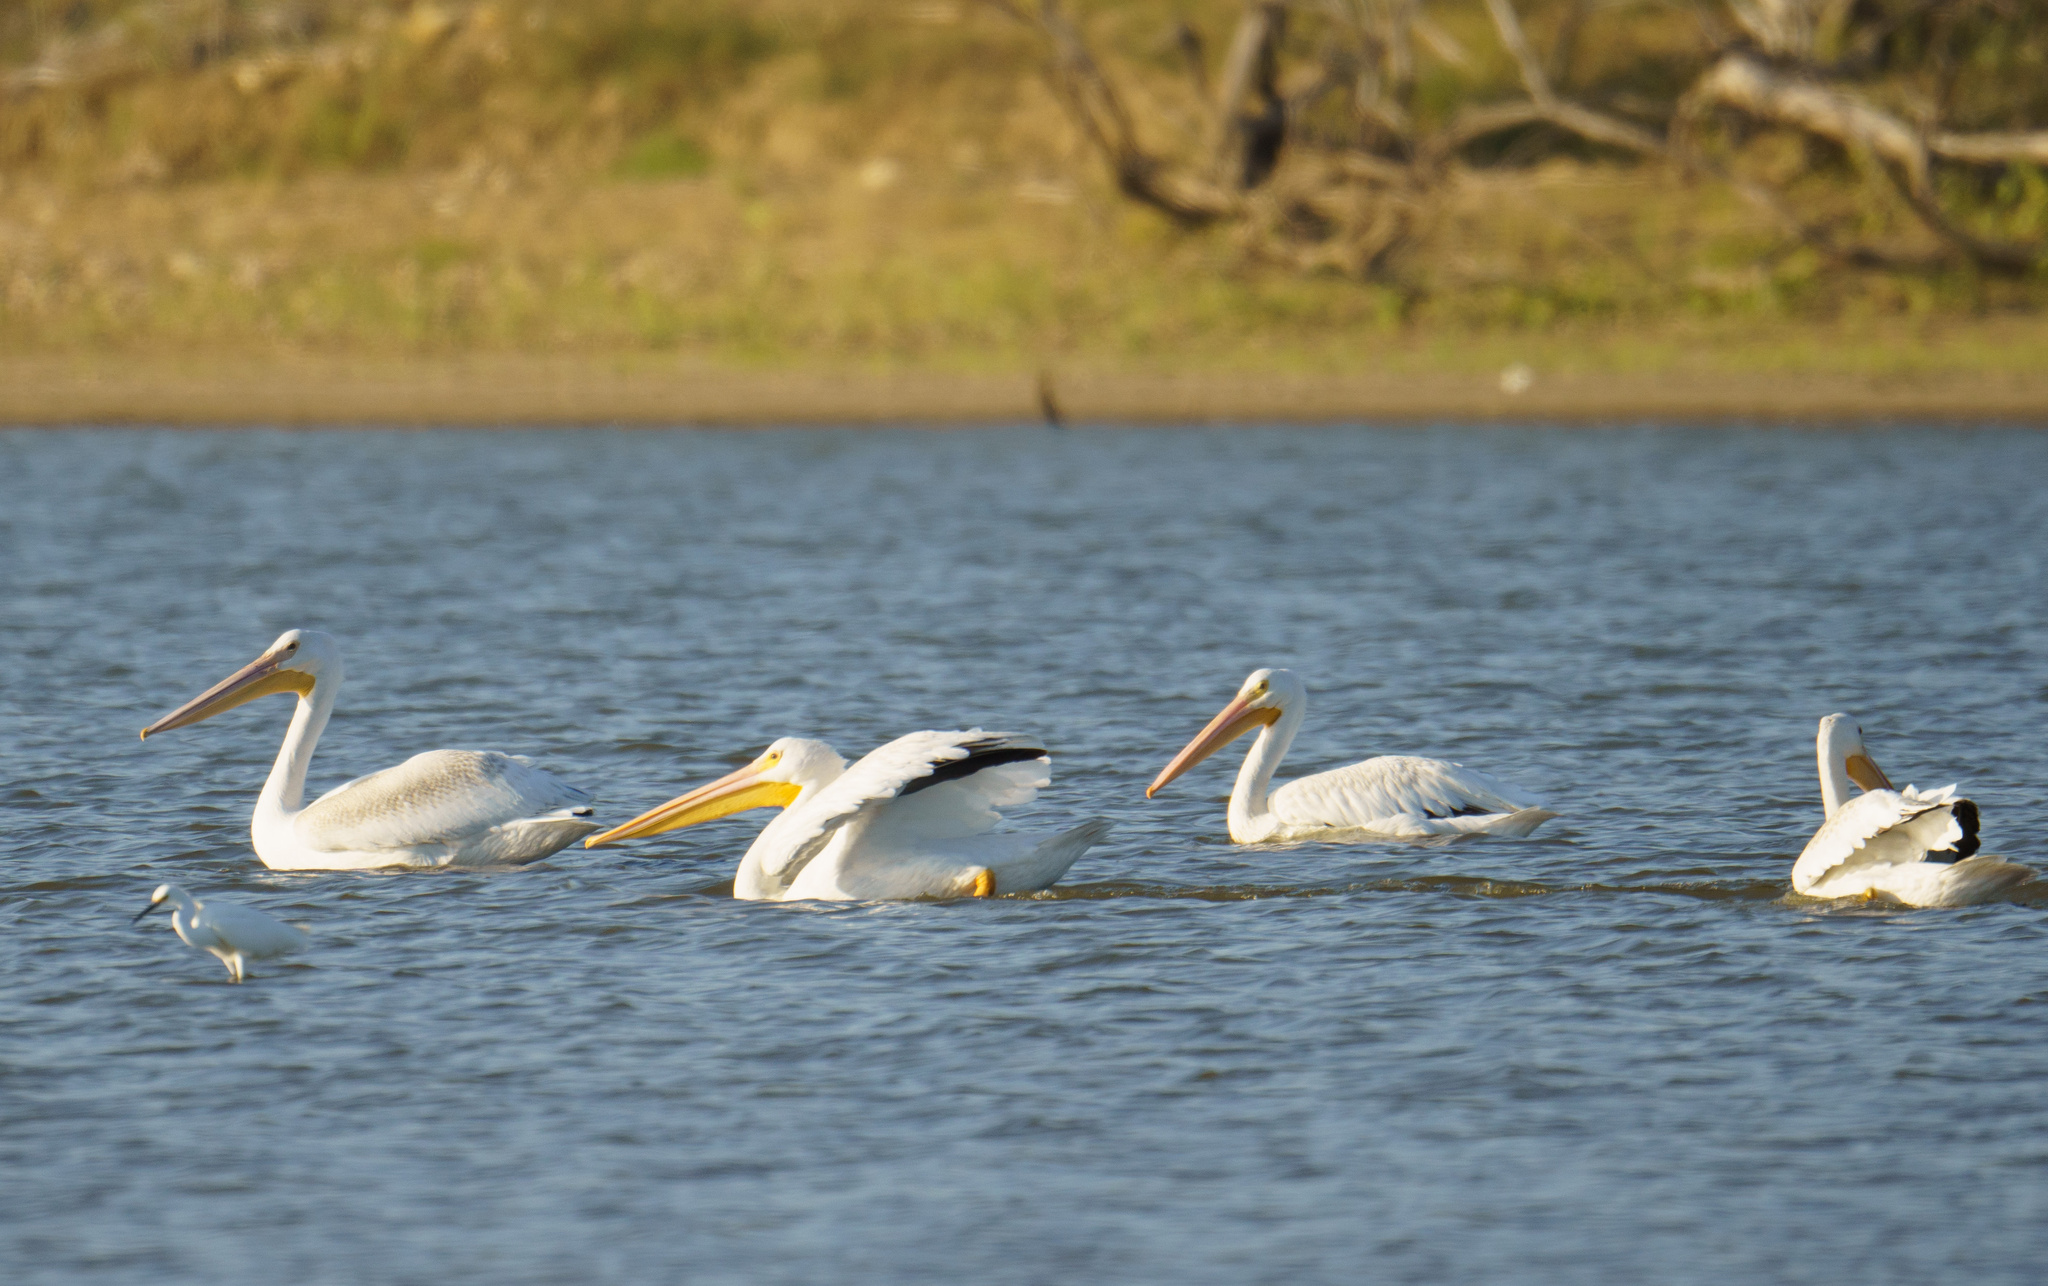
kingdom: Animalia
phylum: Chordata
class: Aves
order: Pelecaniformes
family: Pelecanidae
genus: Pelecanus
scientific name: Pelecanus erythrorhynchos
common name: American white pelican
